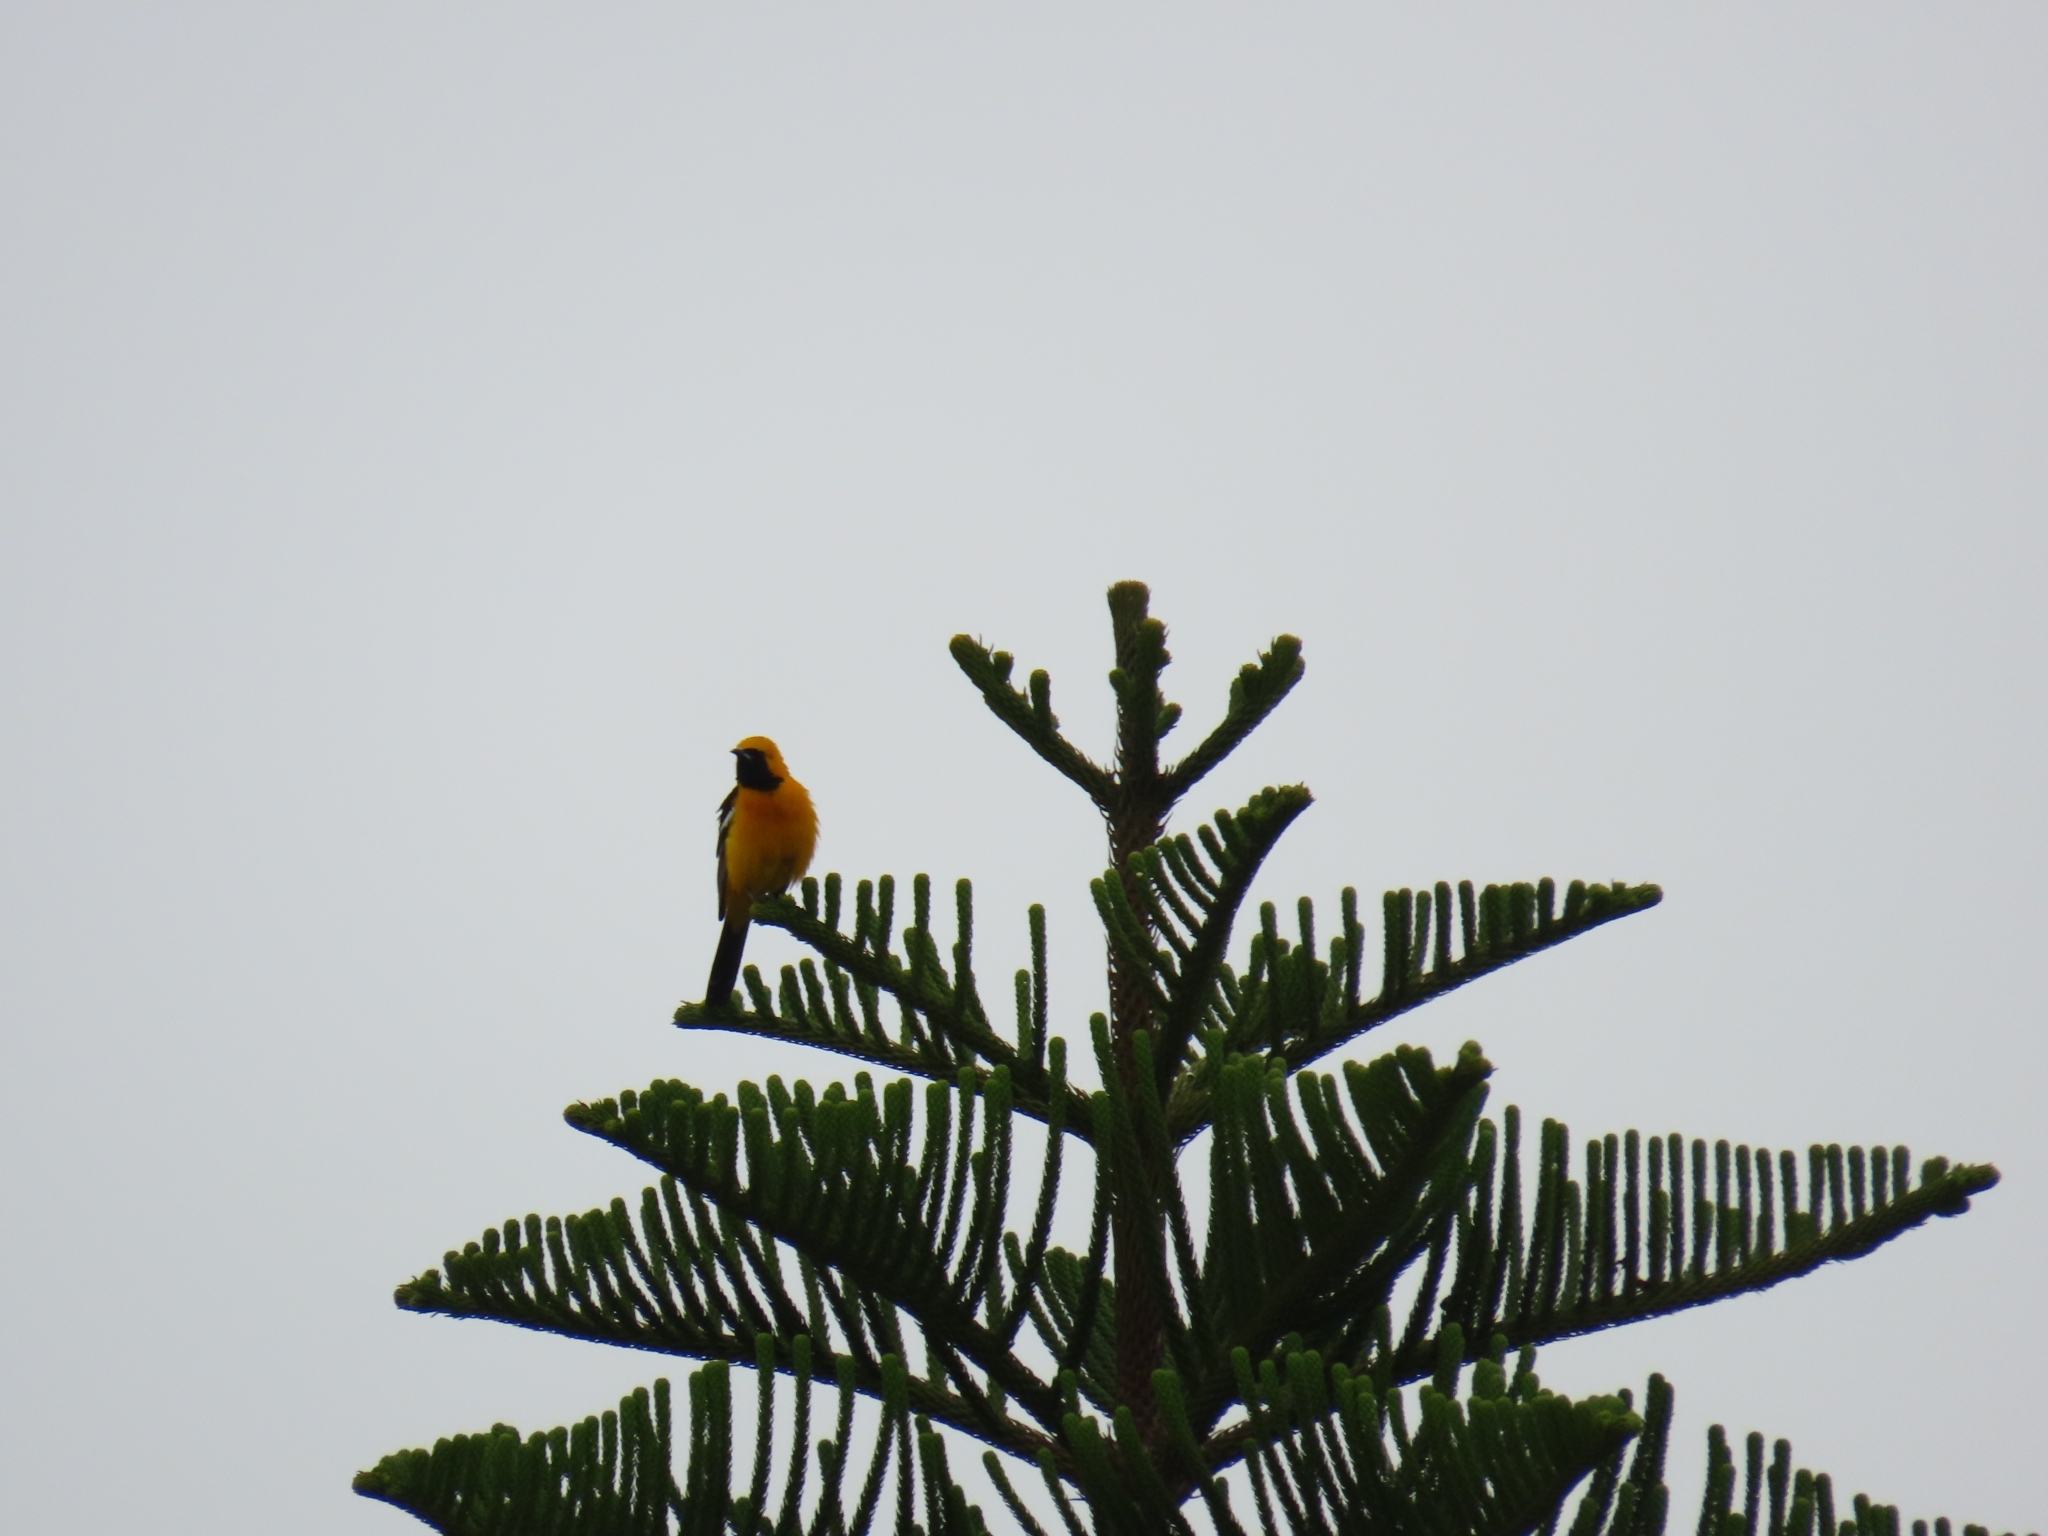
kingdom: Animalia
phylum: Chordata
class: Aves
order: Passeriformes
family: Icteridae
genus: Icterus
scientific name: Icterus cucullatus
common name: Hooded oriole
